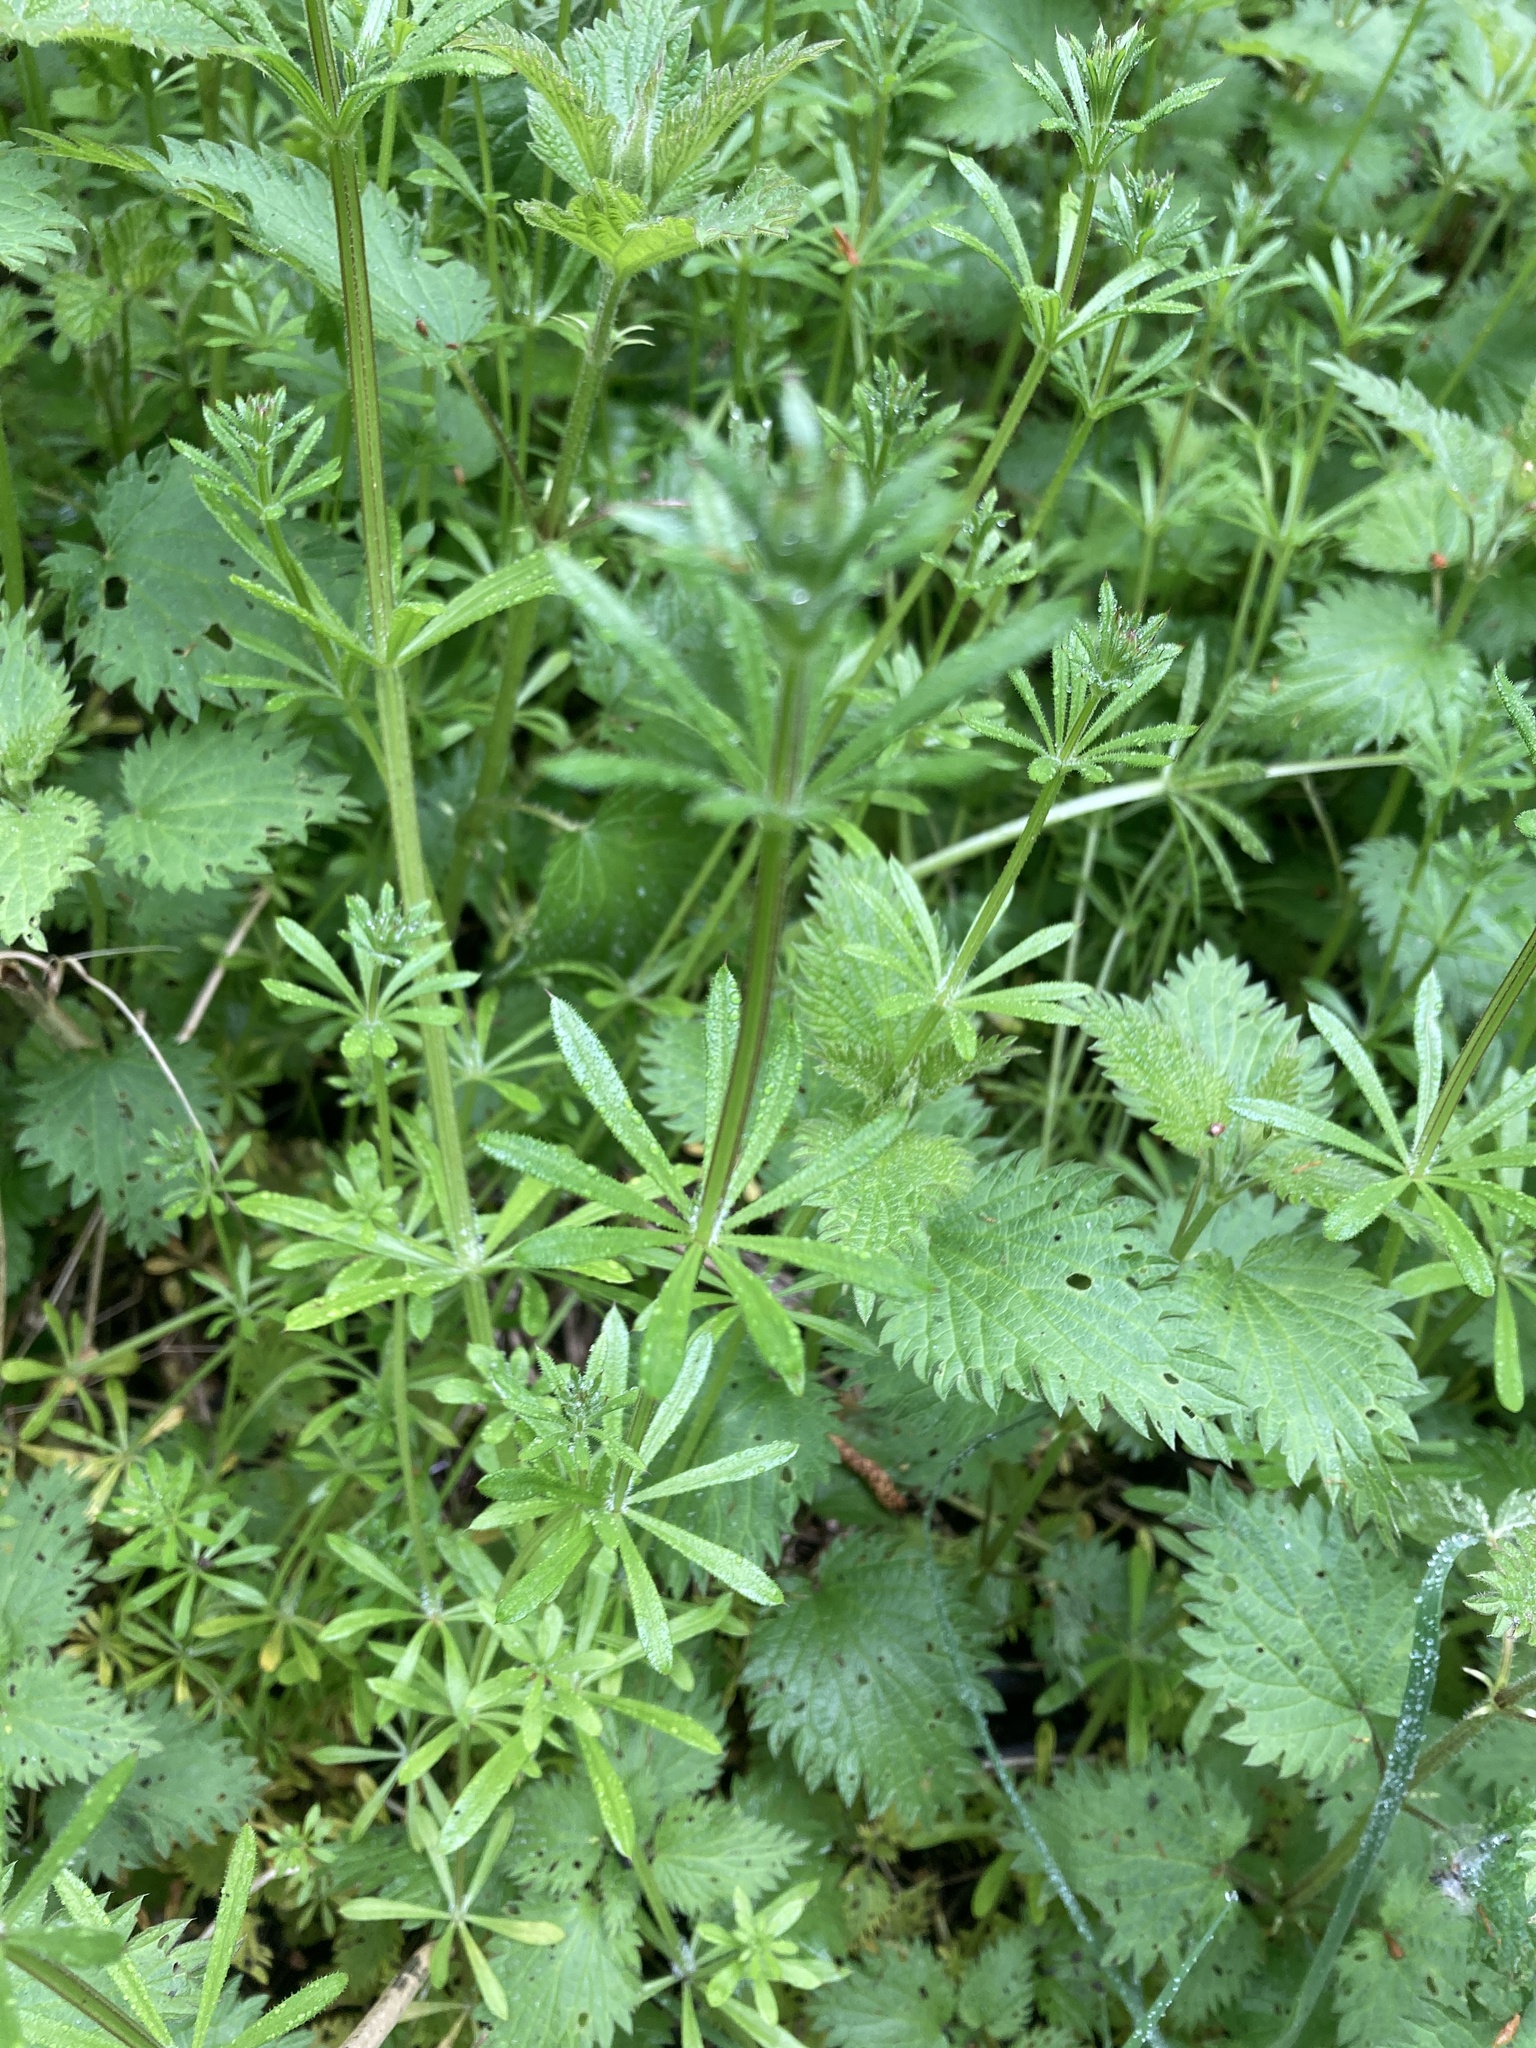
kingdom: Plantae
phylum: Tracheophyta
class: Magnoliopsida
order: Gentianales
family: Rubiaceae
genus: Galium
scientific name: Galium aparine
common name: Cleavers
